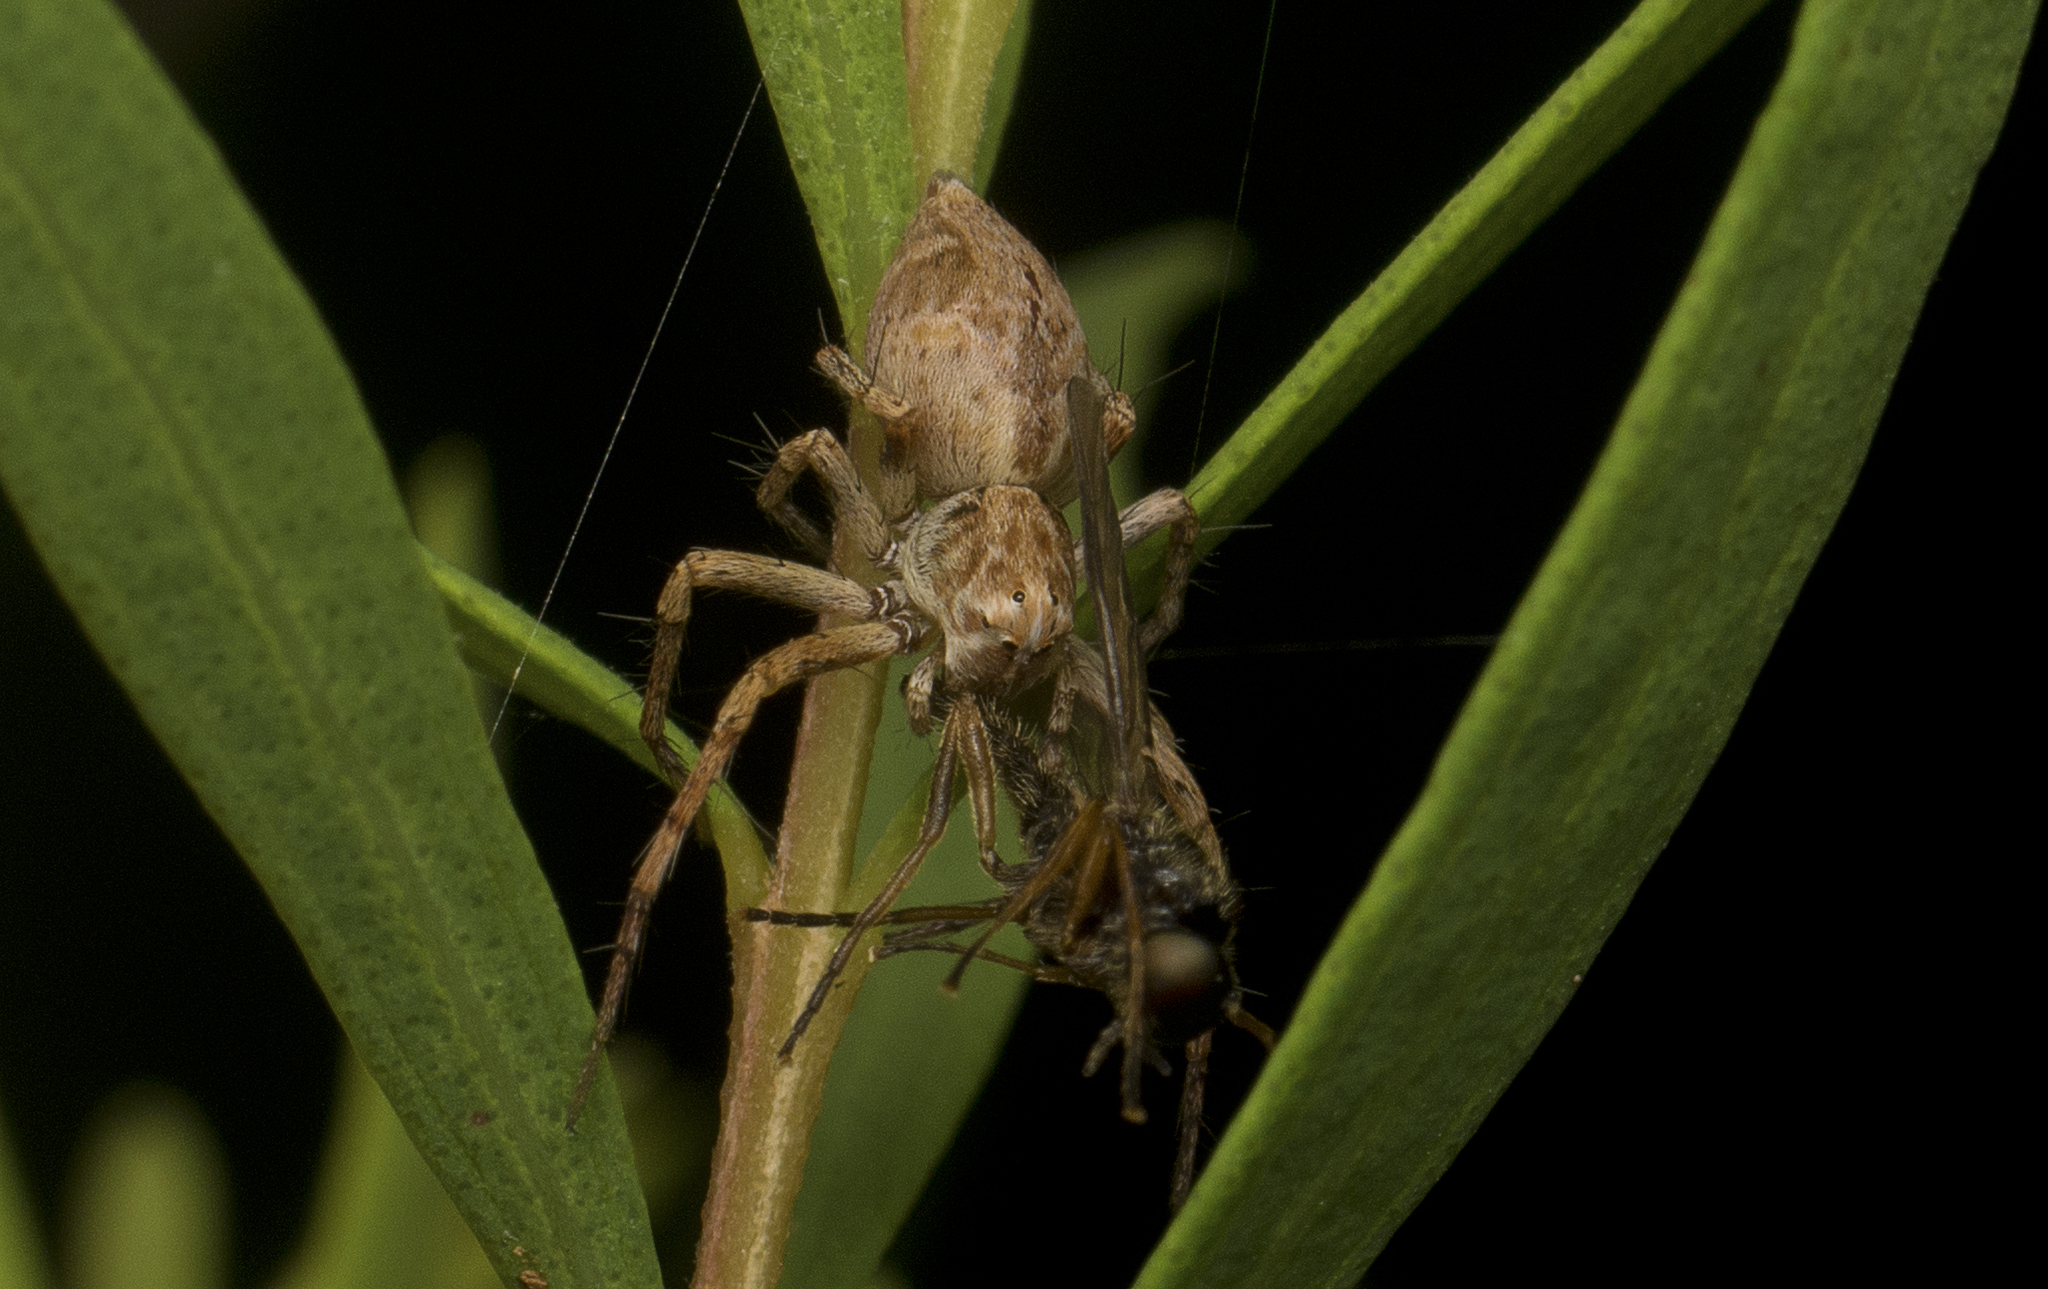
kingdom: Animalia
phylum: Arthropoda
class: Arachnida
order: Araneae
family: Oxyopidae
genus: Oxyopes
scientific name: Oxyopes variabilis
